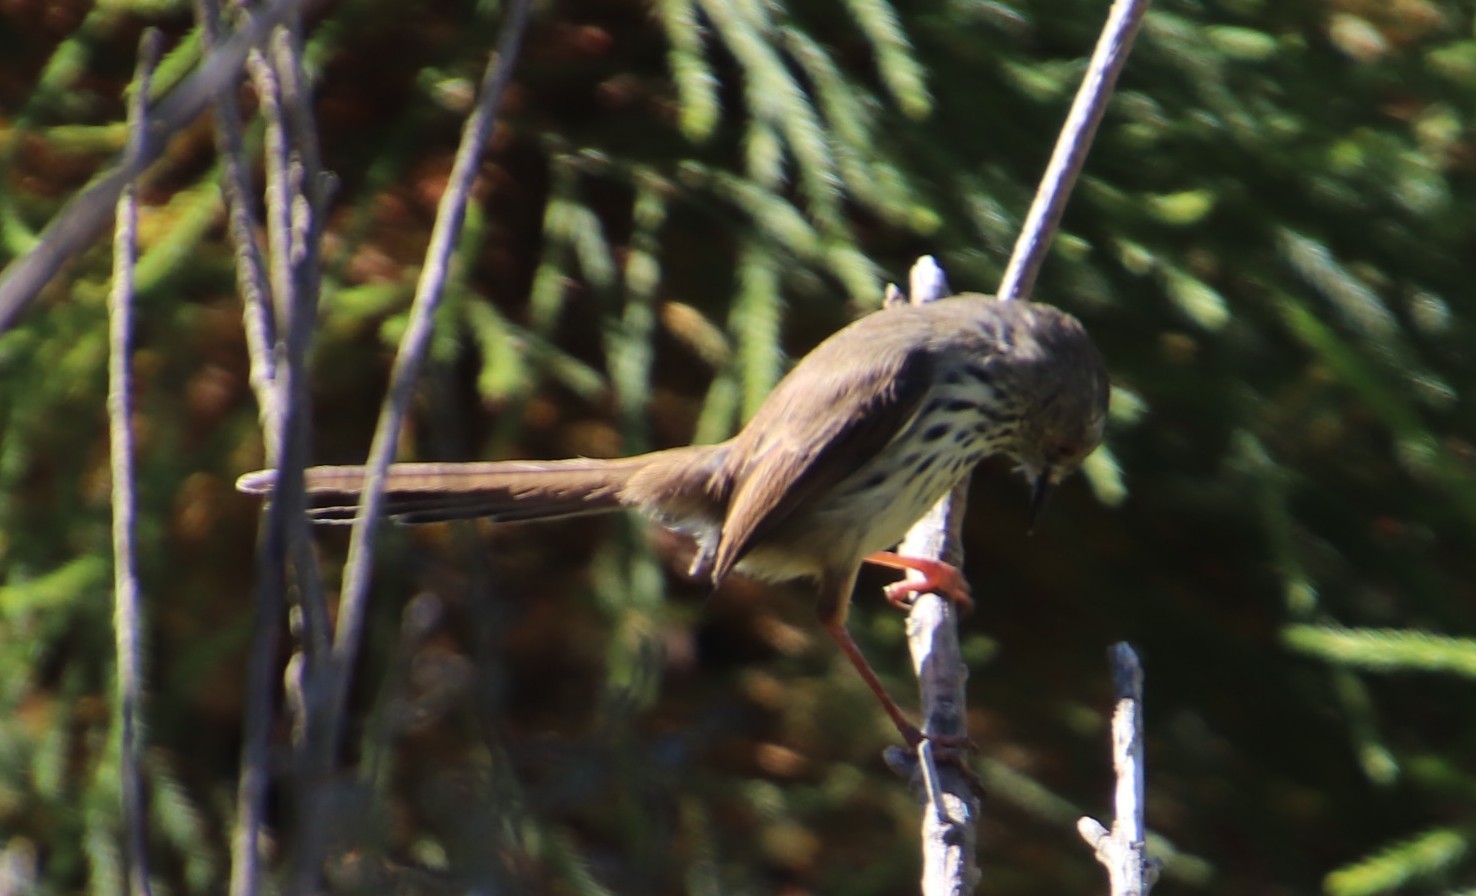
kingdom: Animalia
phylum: Chordata
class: Aves
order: Passeriformes
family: Cisticolidae
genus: Prinia
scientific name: Prinia maculosa
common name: Karoo prinia
